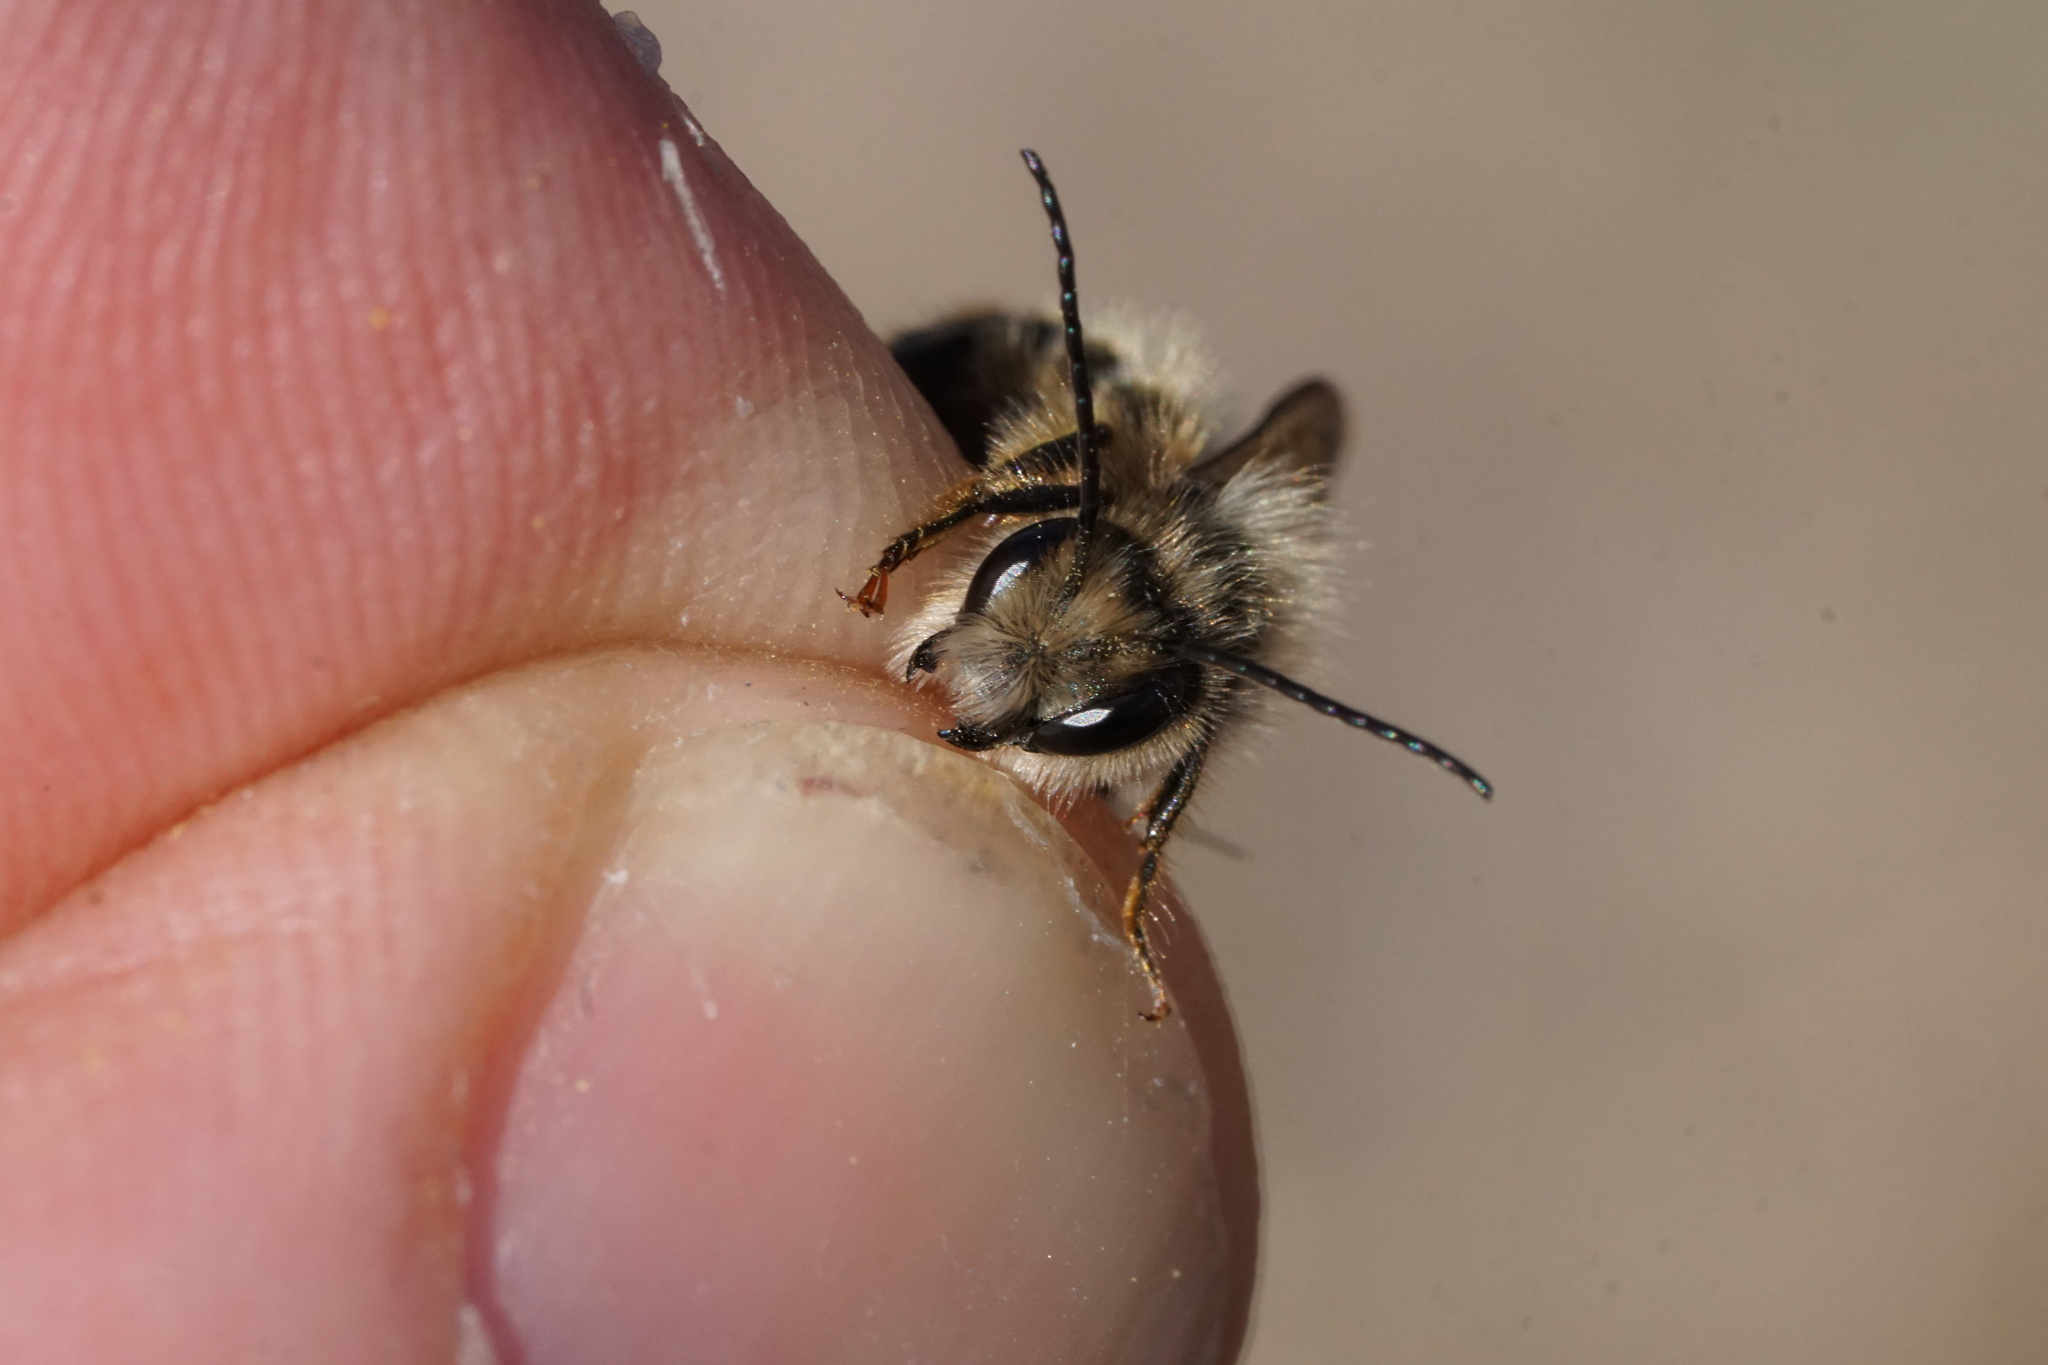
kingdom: Animalia
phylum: Arthropoda
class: Insecta
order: Hymenoptera
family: Megachilidae
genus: Osmia
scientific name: Osmia cornifrons
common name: Horn-faced bee
